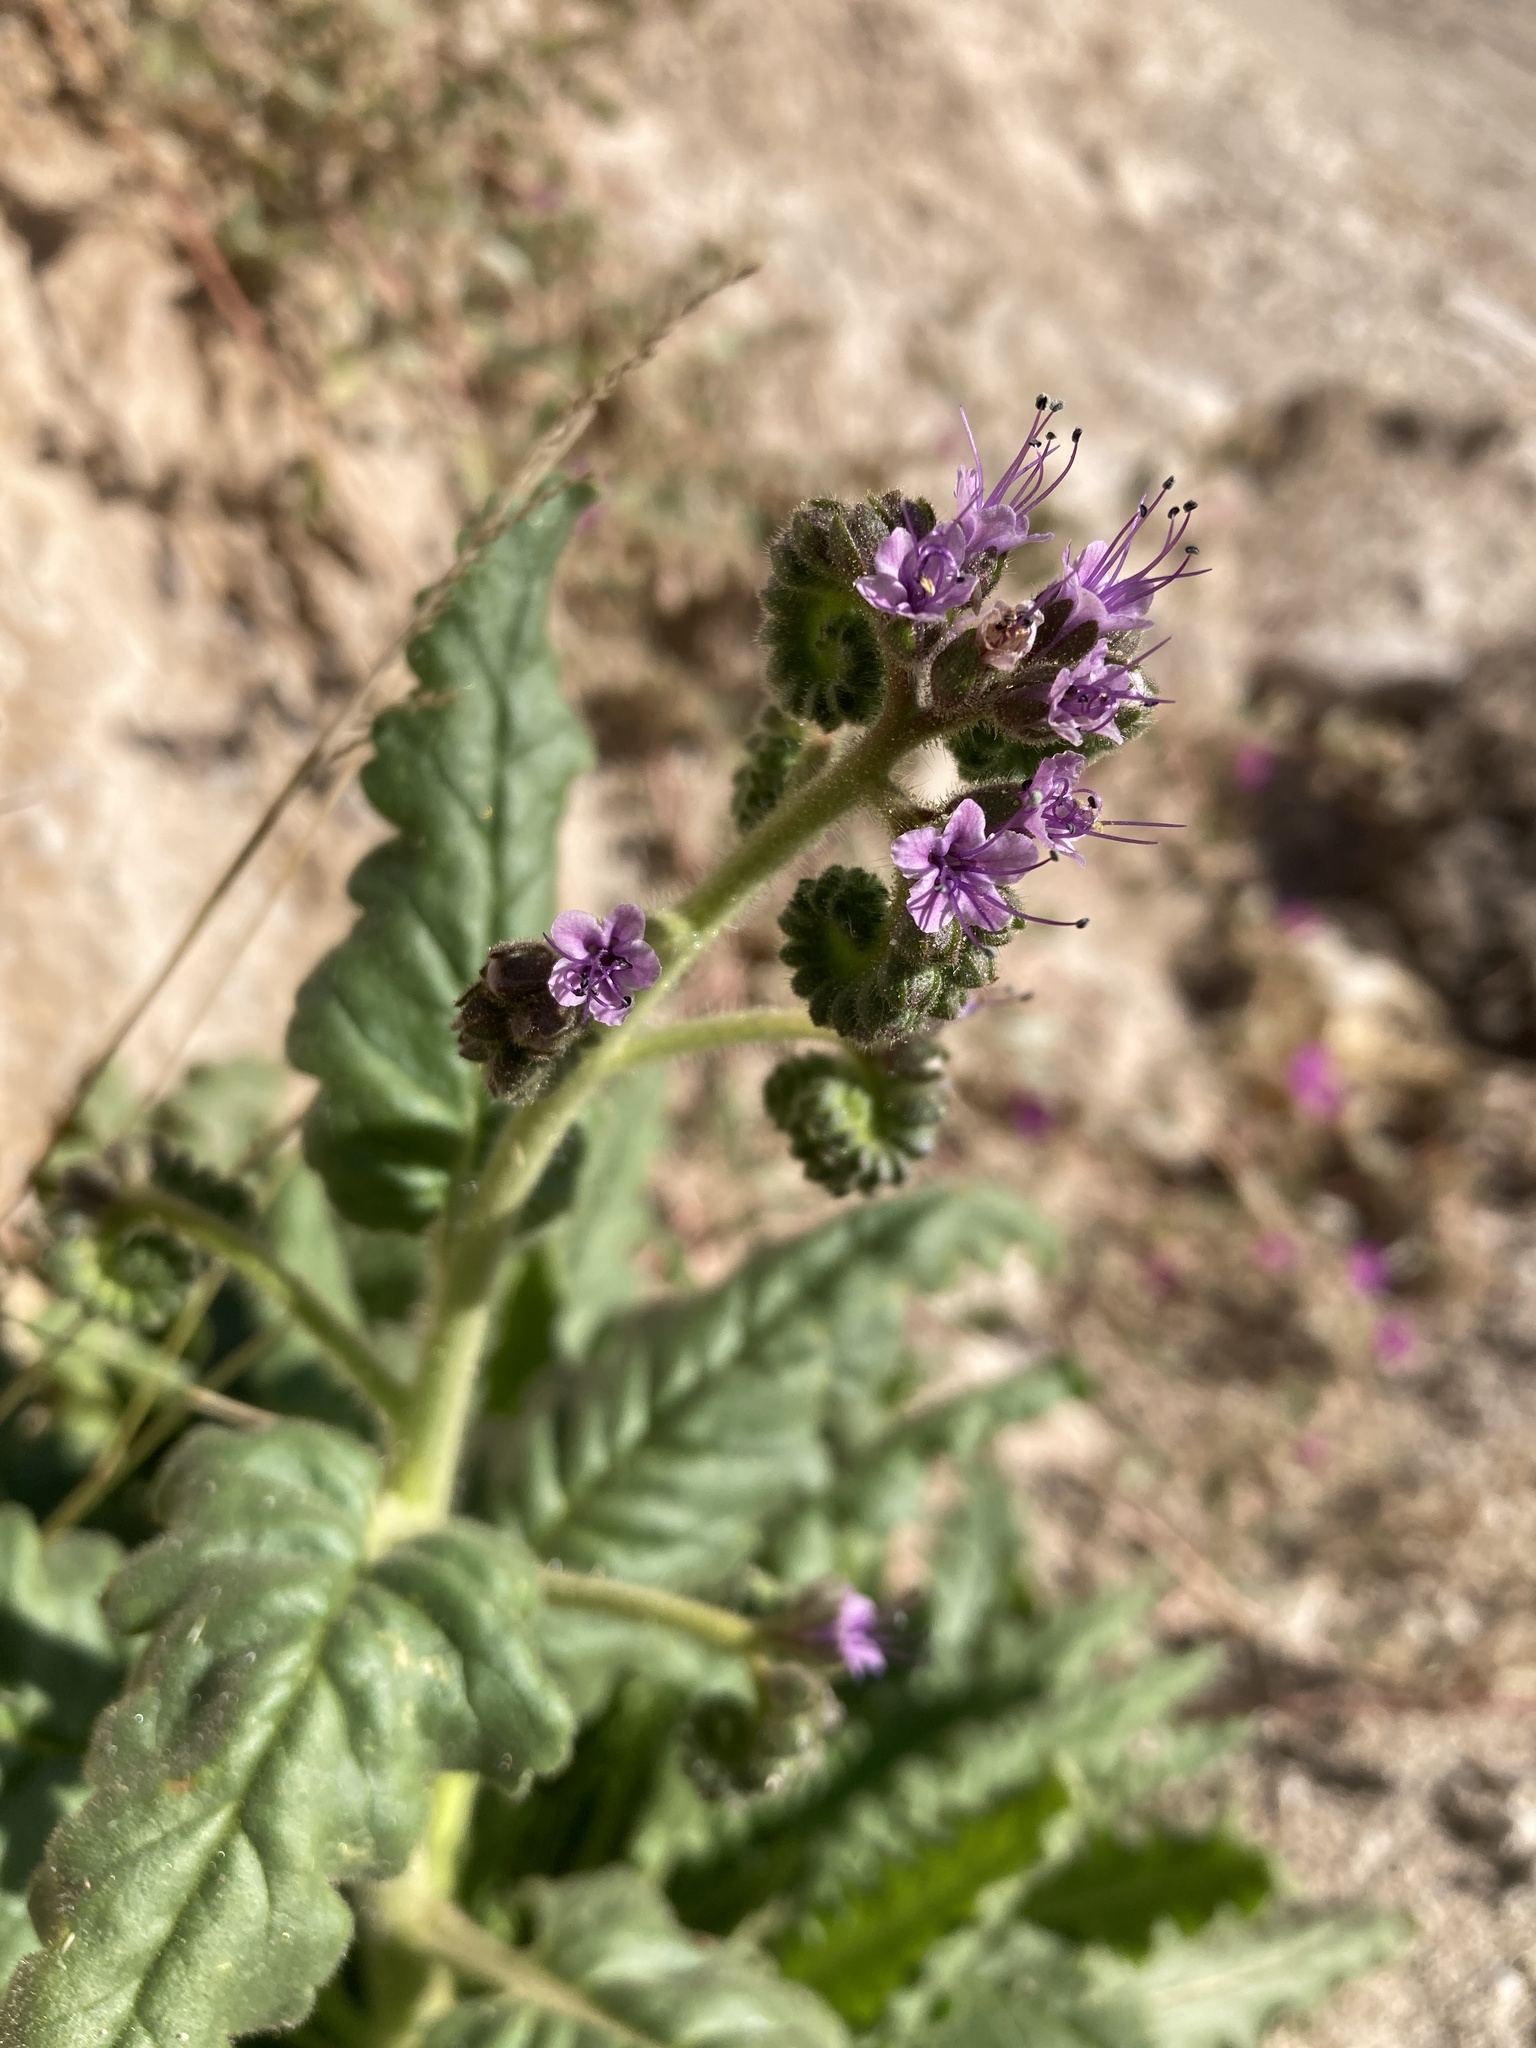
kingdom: Plantae
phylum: Tracheophyta
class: Magnoliopsida
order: Boraginales
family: Hydrophyllaceae
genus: Phacelia
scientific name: Phacelia integrifolia
